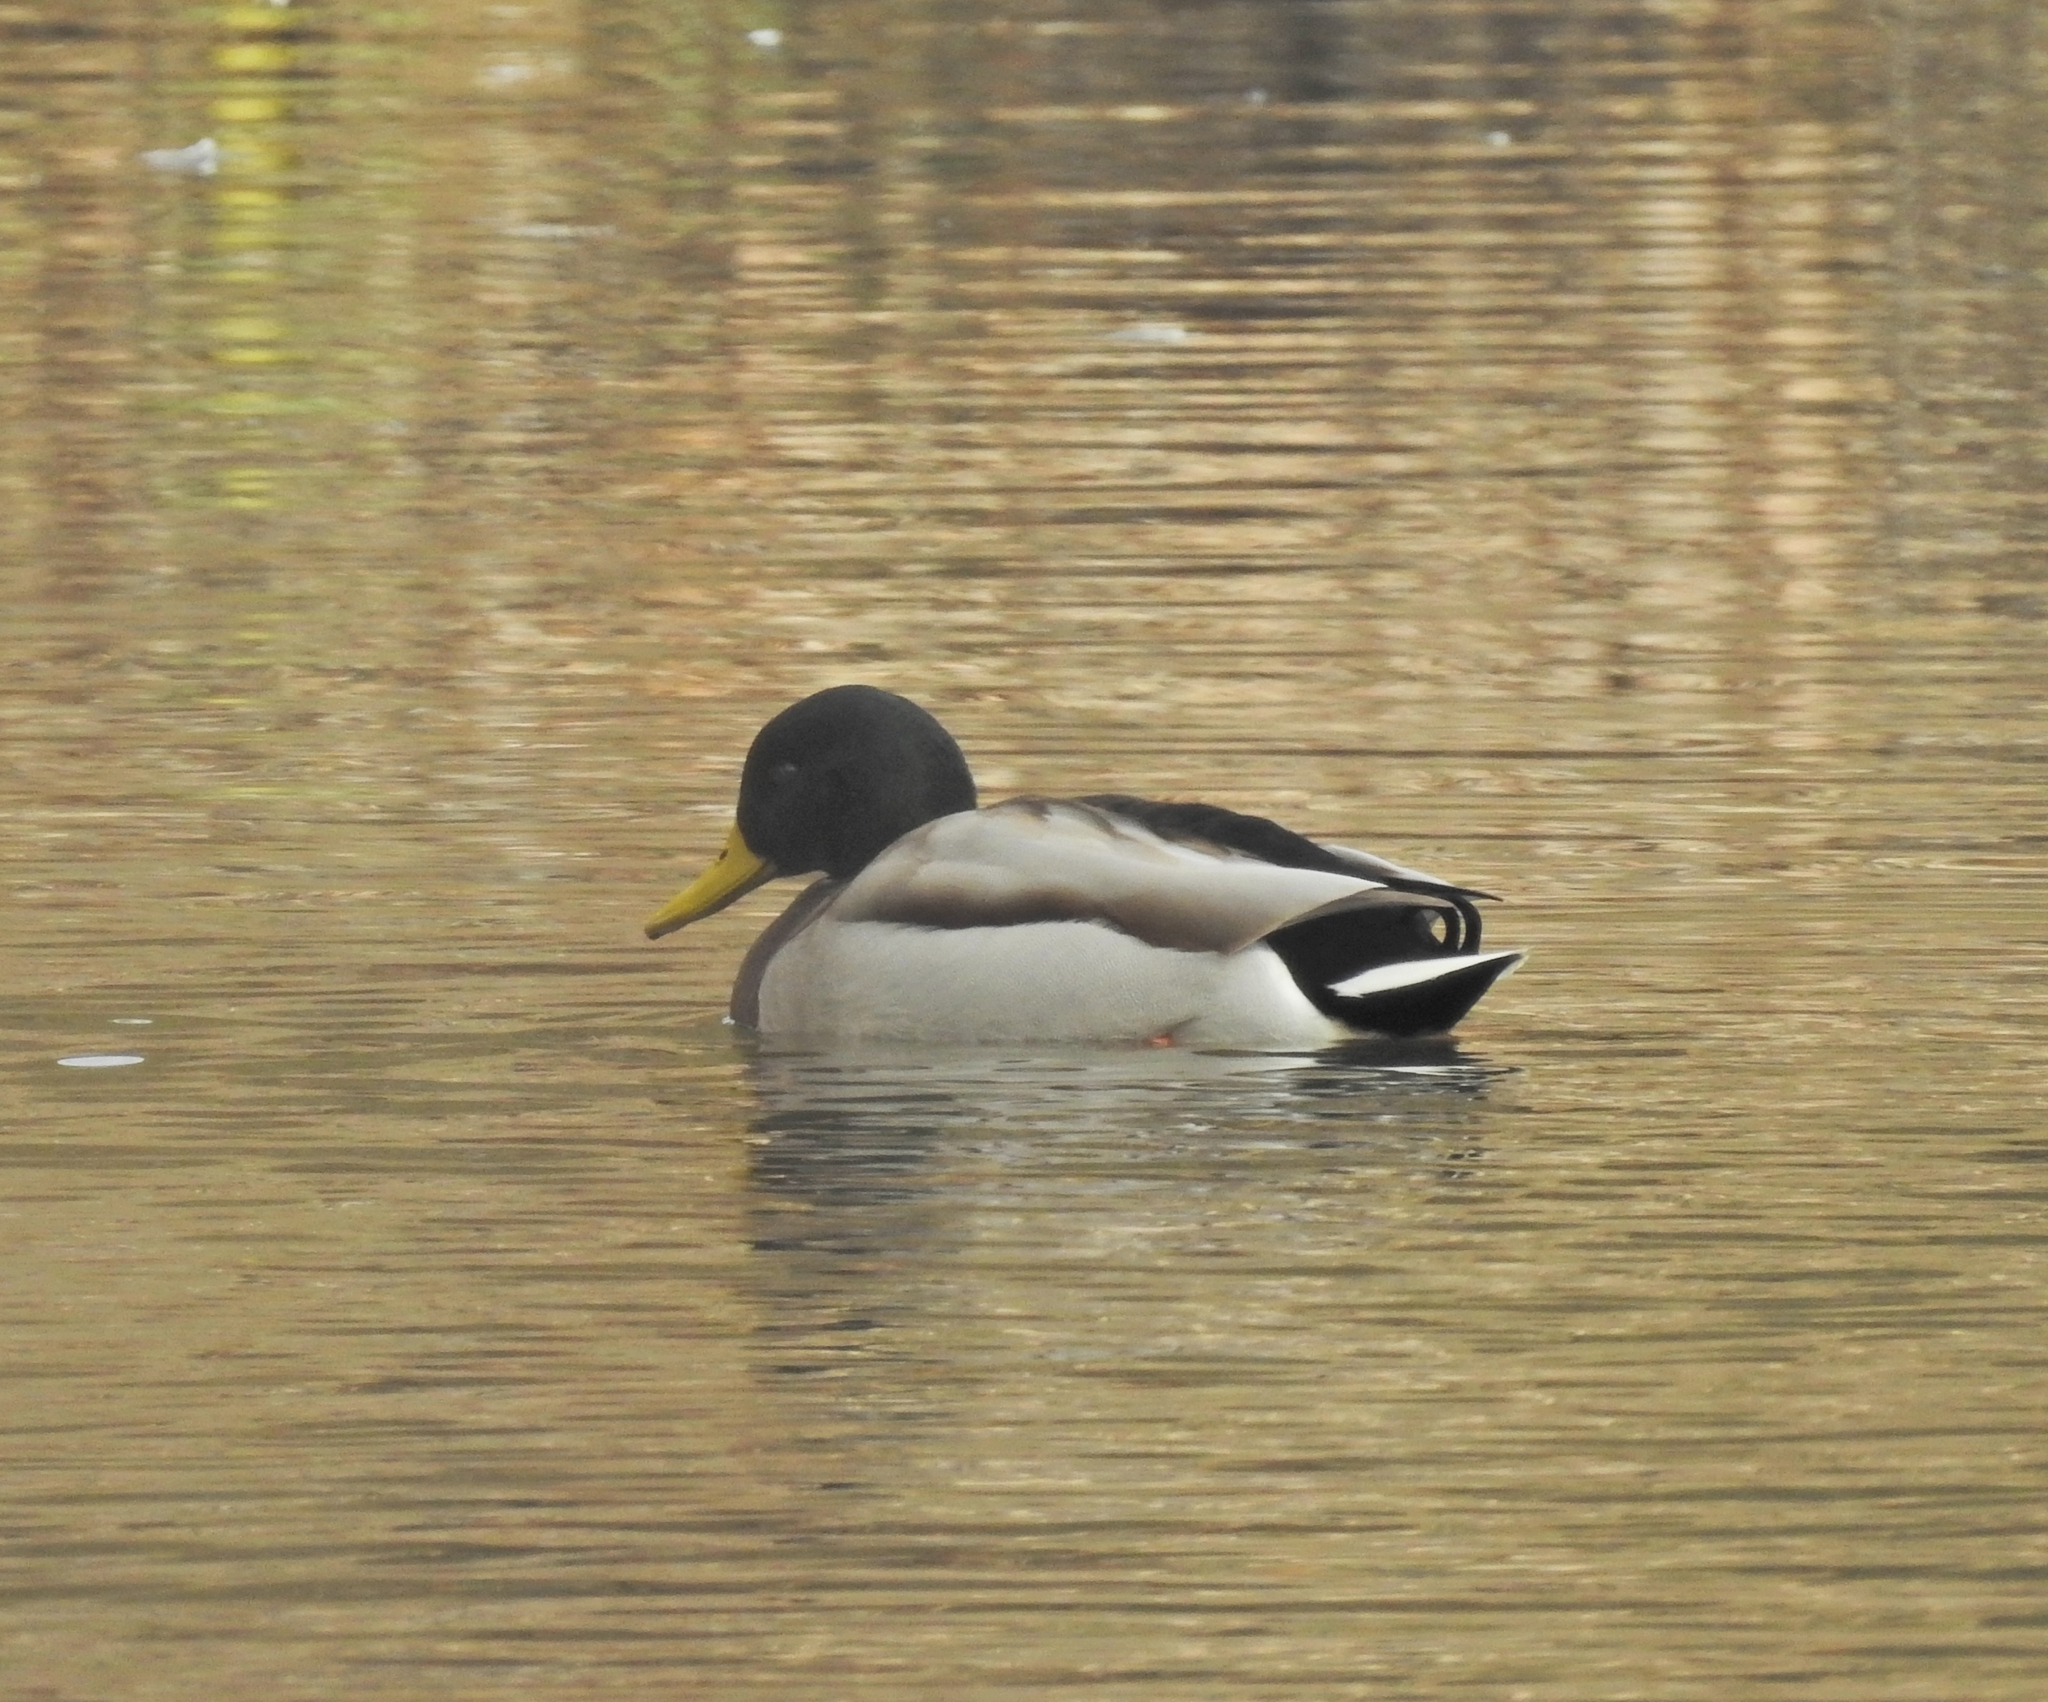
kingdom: Animalia
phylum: Chordata
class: Aves
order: Anseriformes
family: Anatidae
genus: Anas
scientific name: Anas platyrhynchos
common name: Mallard
